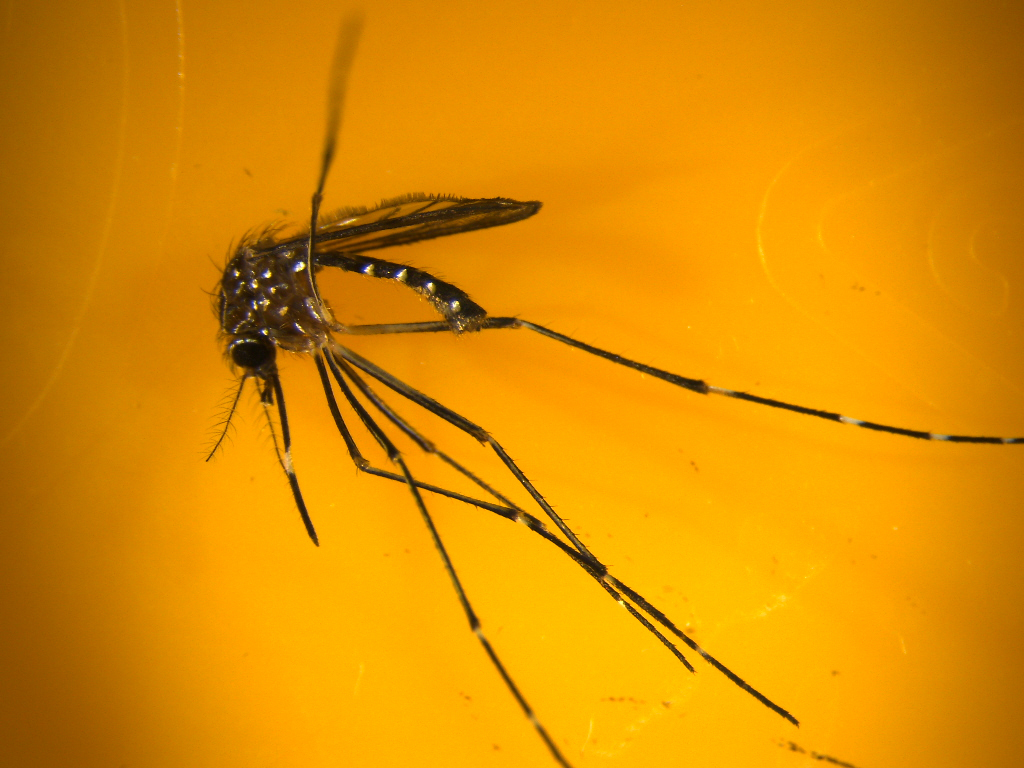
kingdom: Animalia
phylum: Arthropoda
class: Insecta
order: Diptera
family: Culicidae
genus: Aedes
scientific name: Aedes notoscriptus
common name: Australian backyard mosquito
